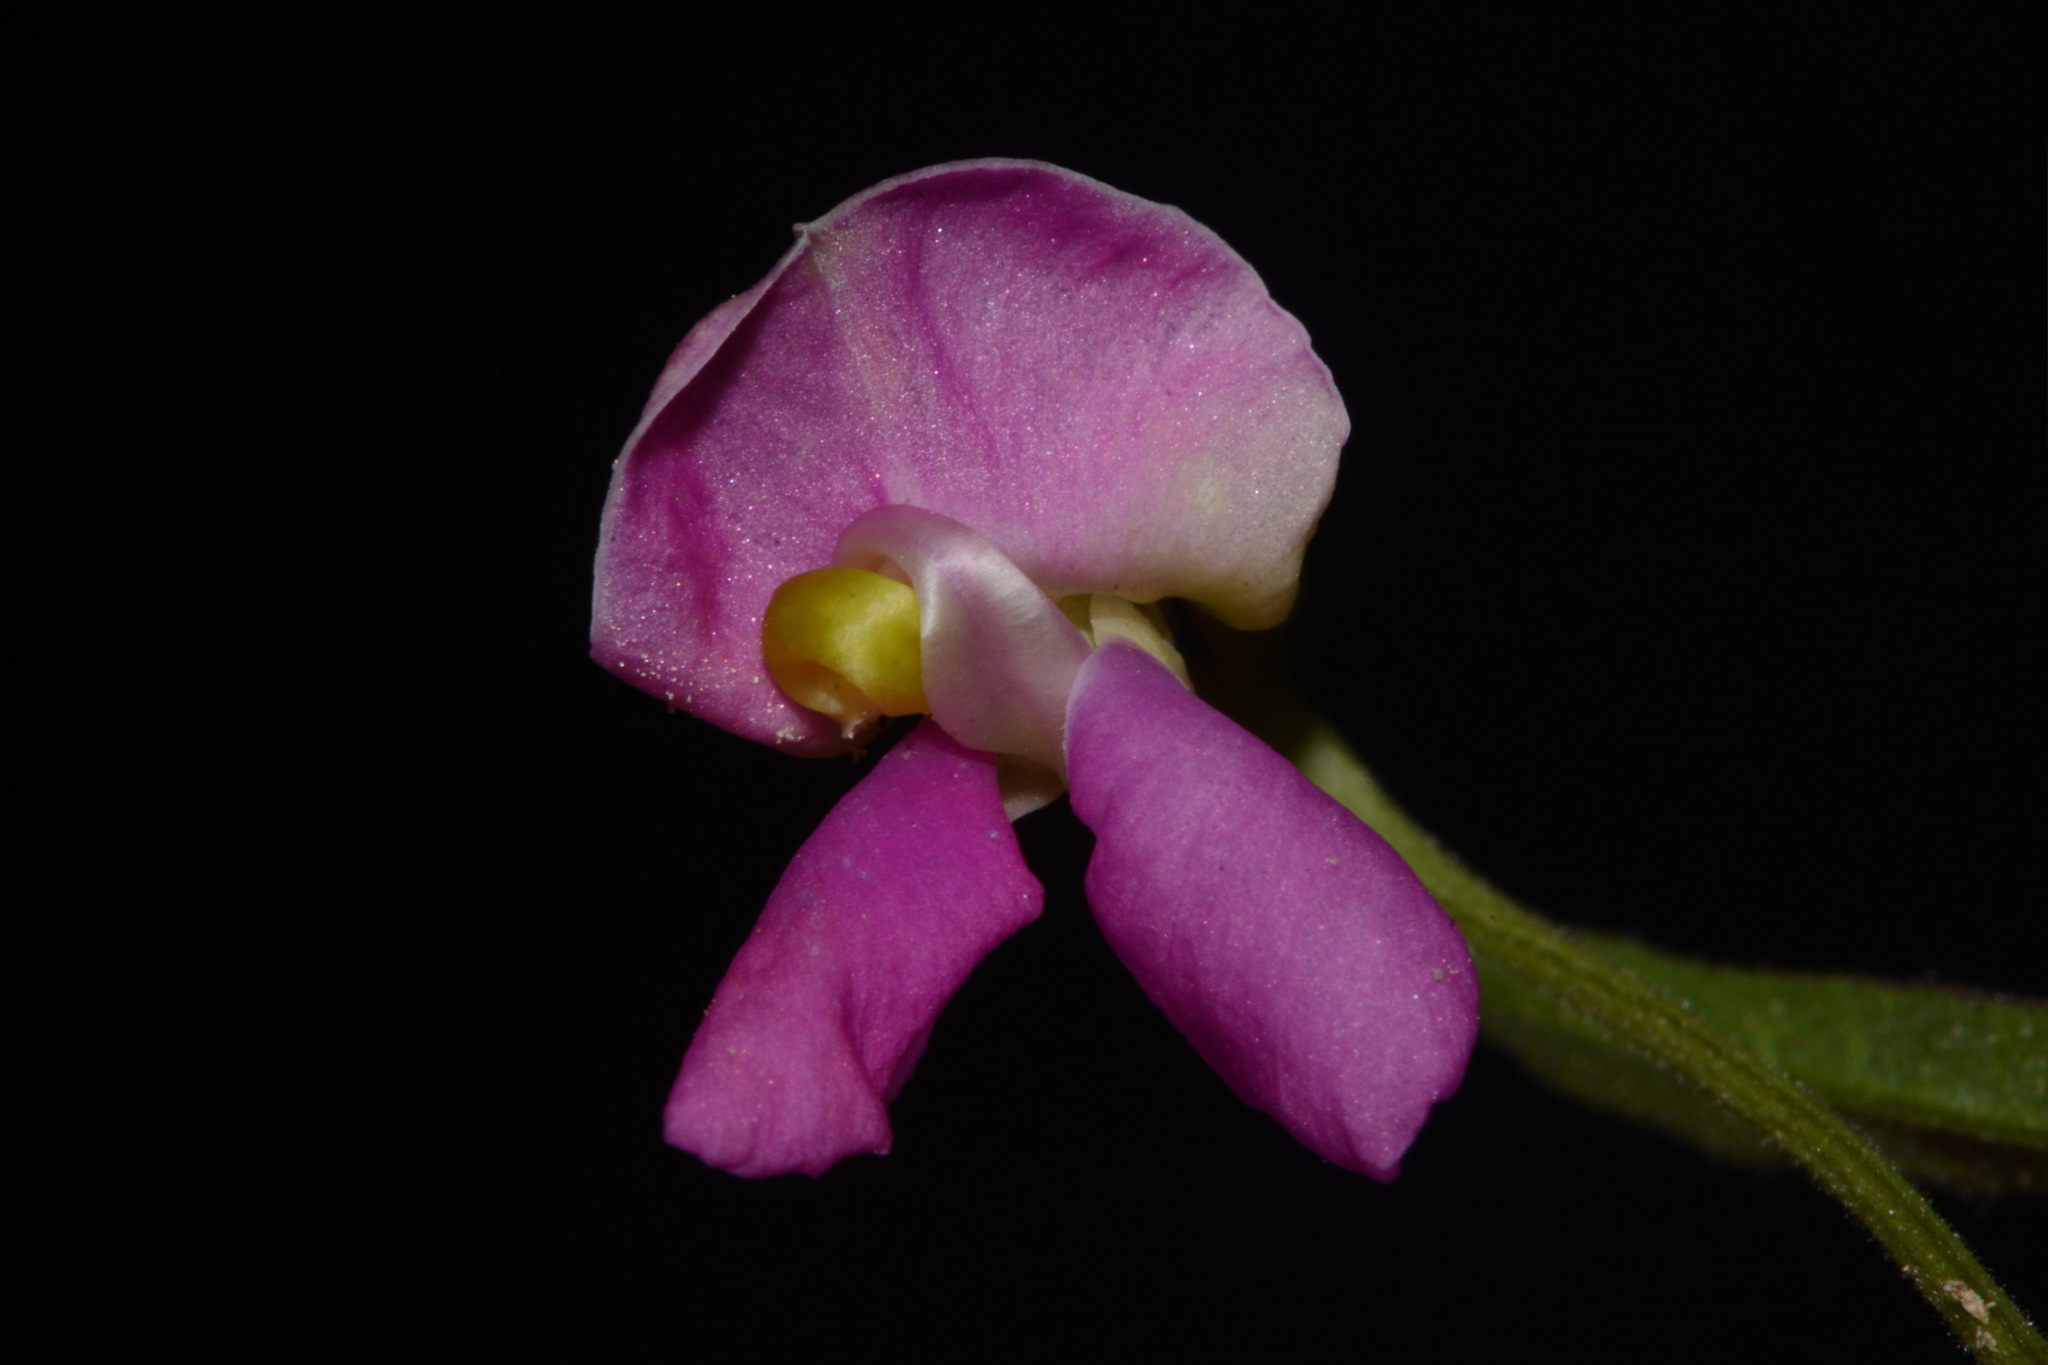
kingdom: Plantae
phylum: Tracheophyta
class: Magnoliopsida
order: Fabales
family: Fabaceae
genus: Phaseolus
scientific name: Phaseolus angustissimus
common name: Slimleaf bean
